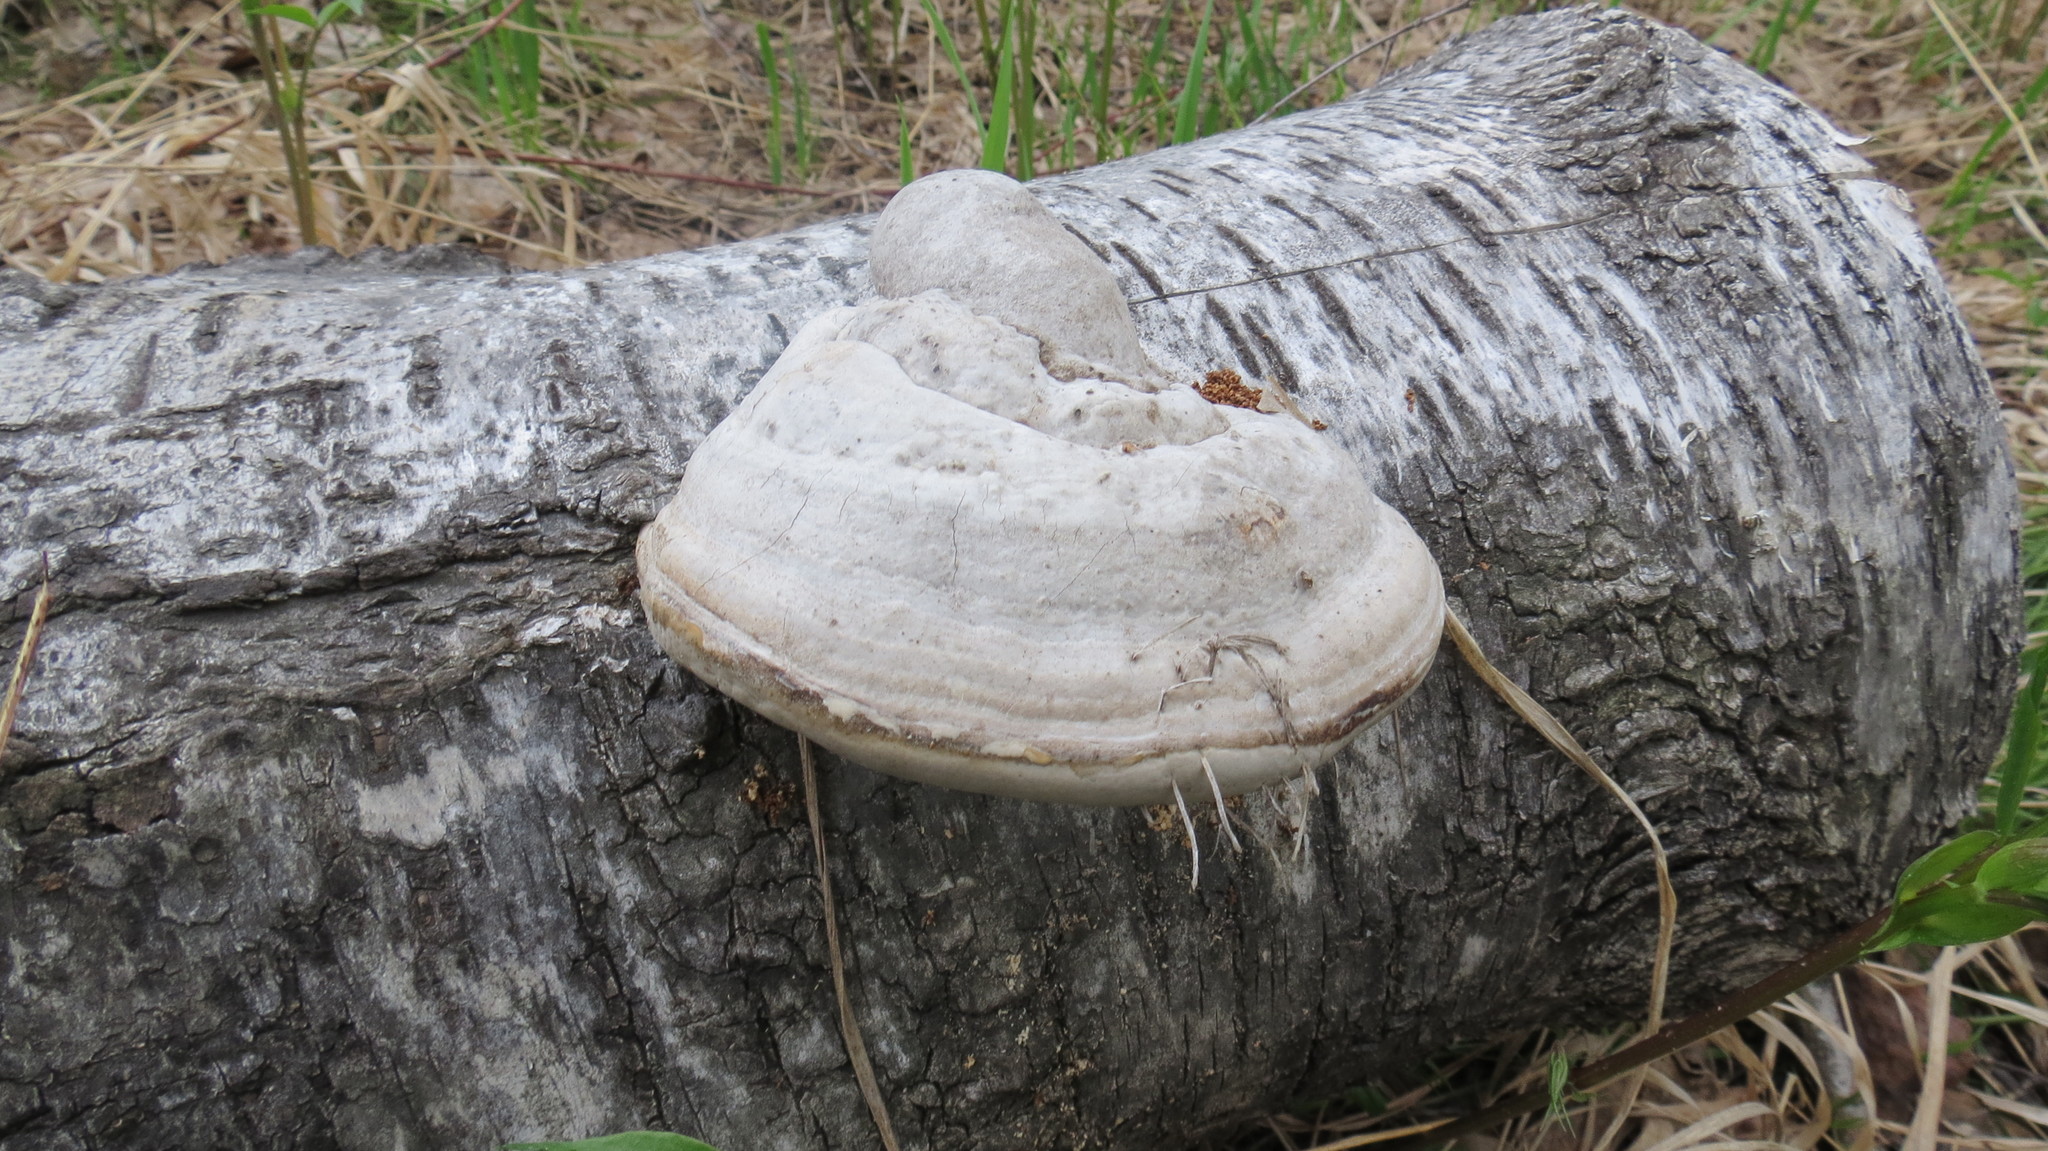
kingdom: Fungi
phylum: Basidiomycota
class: Agaricomycetes
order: Polyporales
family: Polyporaceae
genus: Fomes
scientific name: Fomes fomentarius
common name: Hoof fungus
